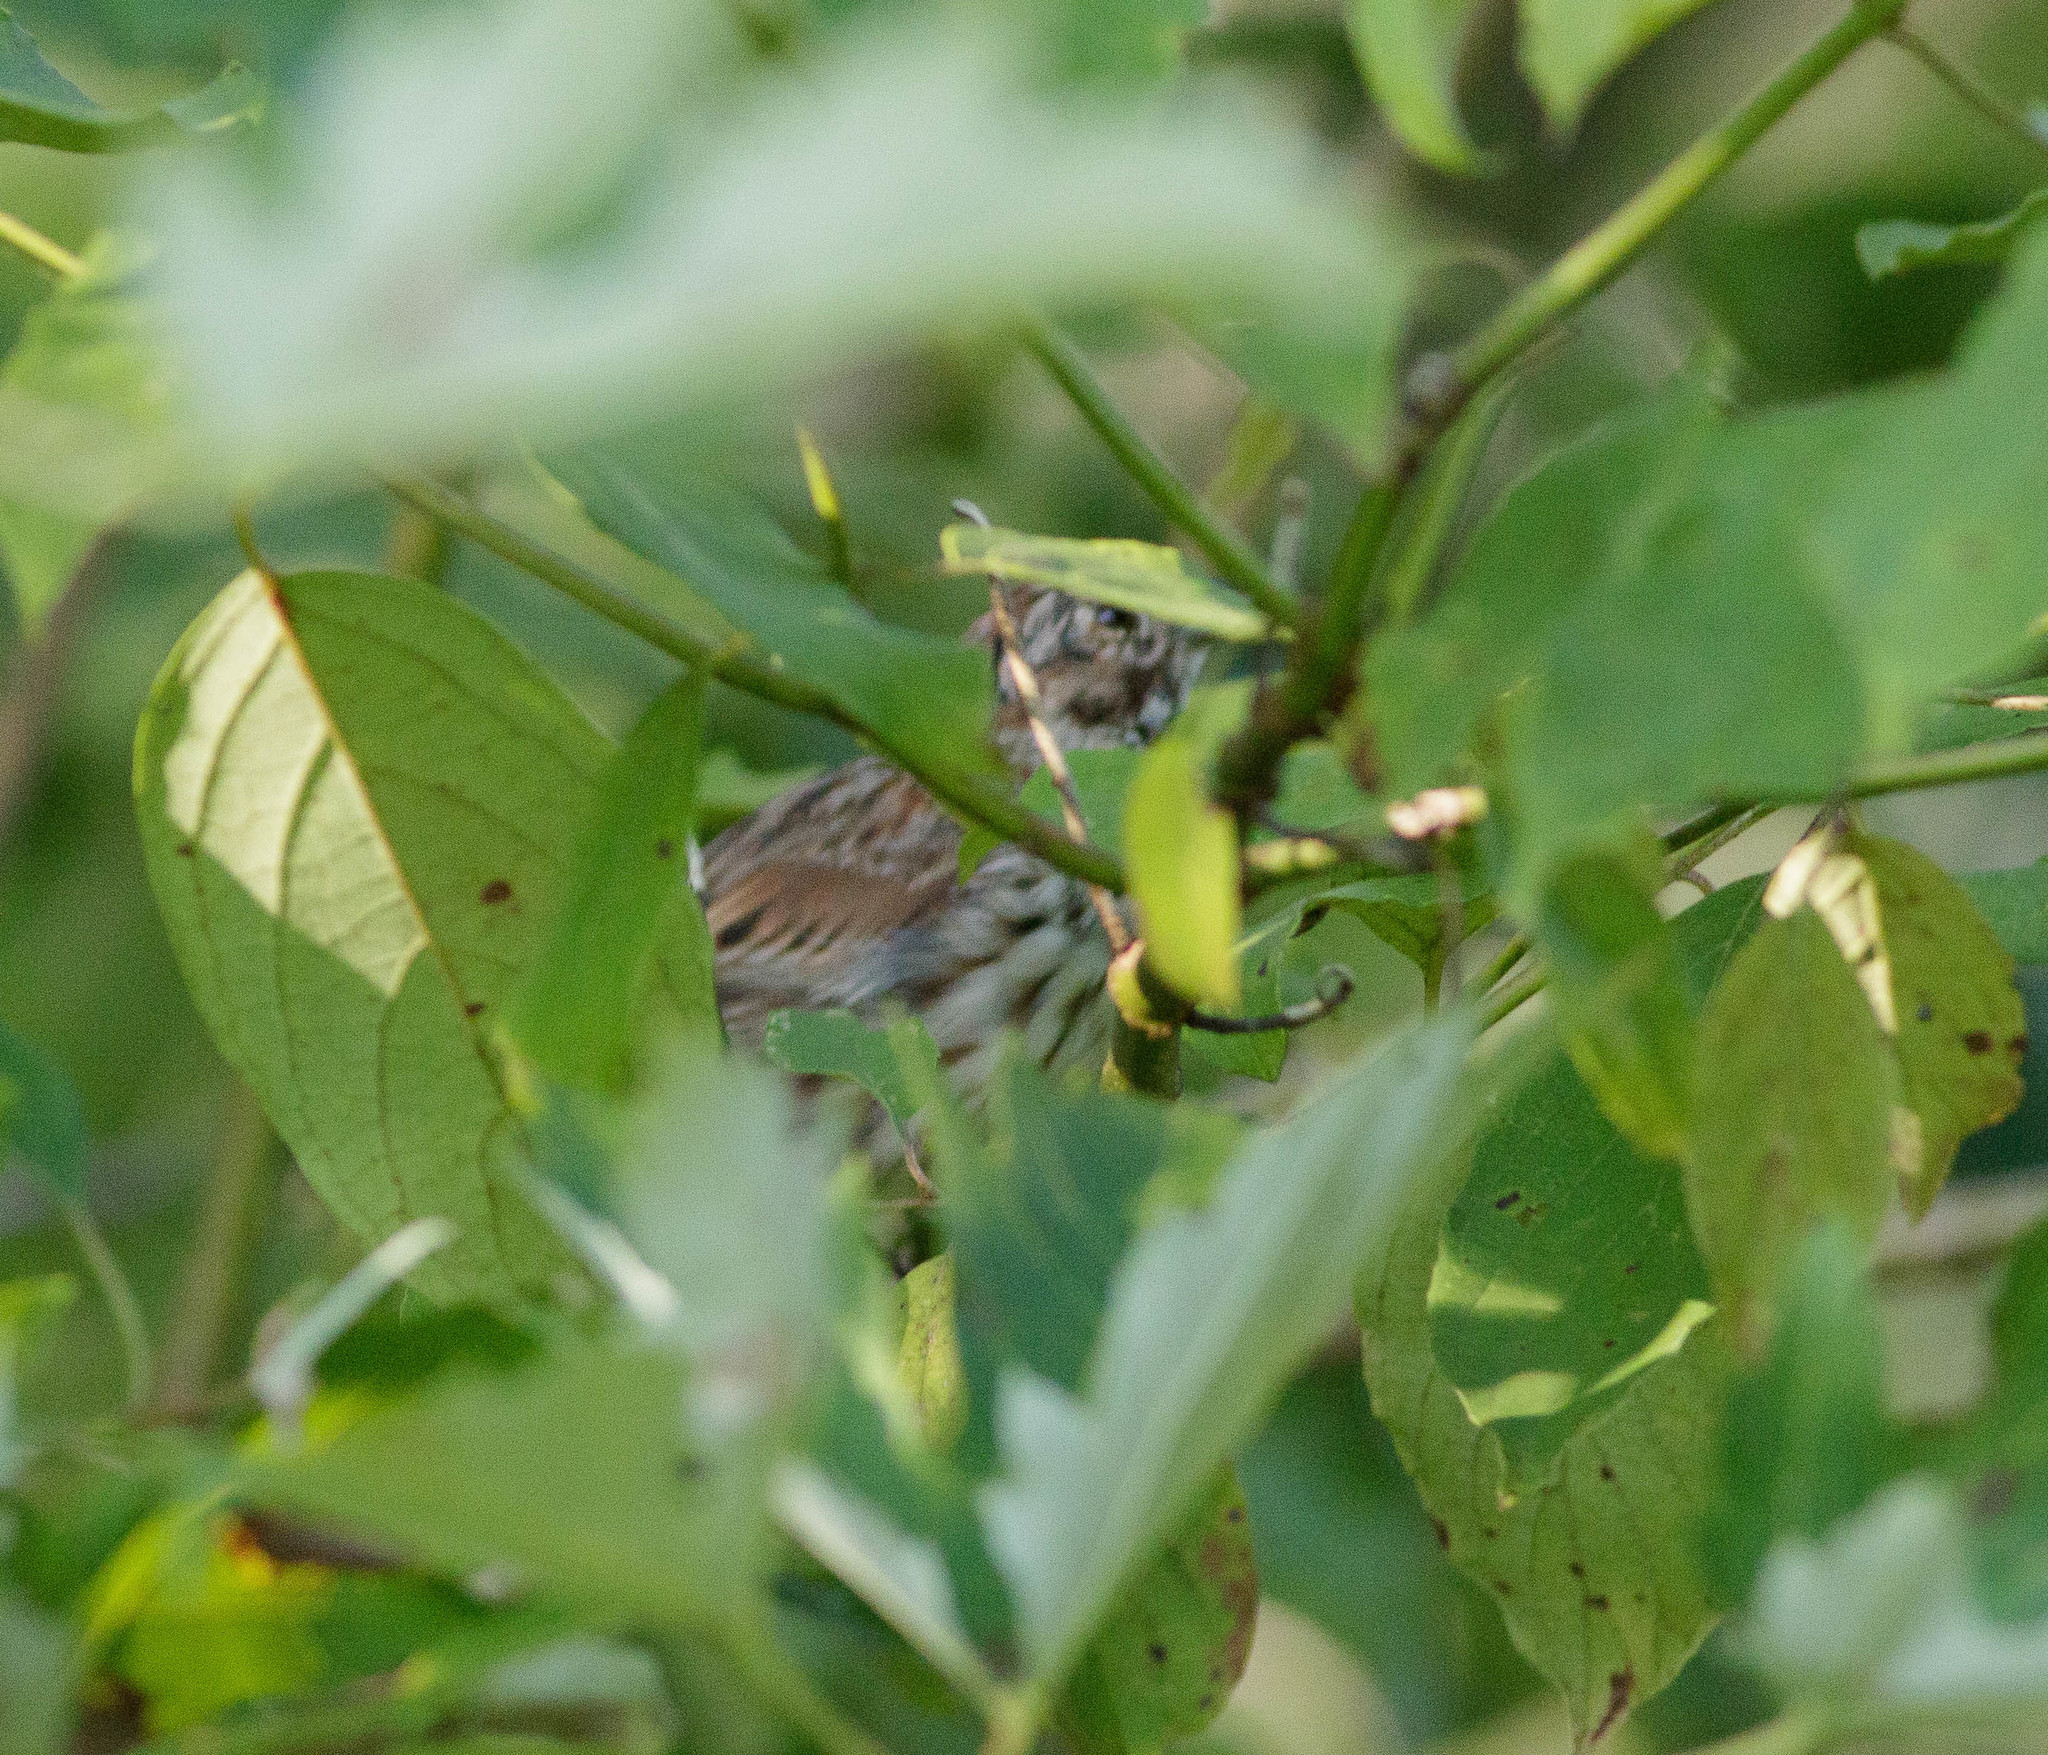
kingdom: Animalia
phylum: Chordata
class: Aves
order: Passeriformes
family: Passerellidae
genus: Melospiza
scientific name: Melospiza melodia
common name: Song sparrow
